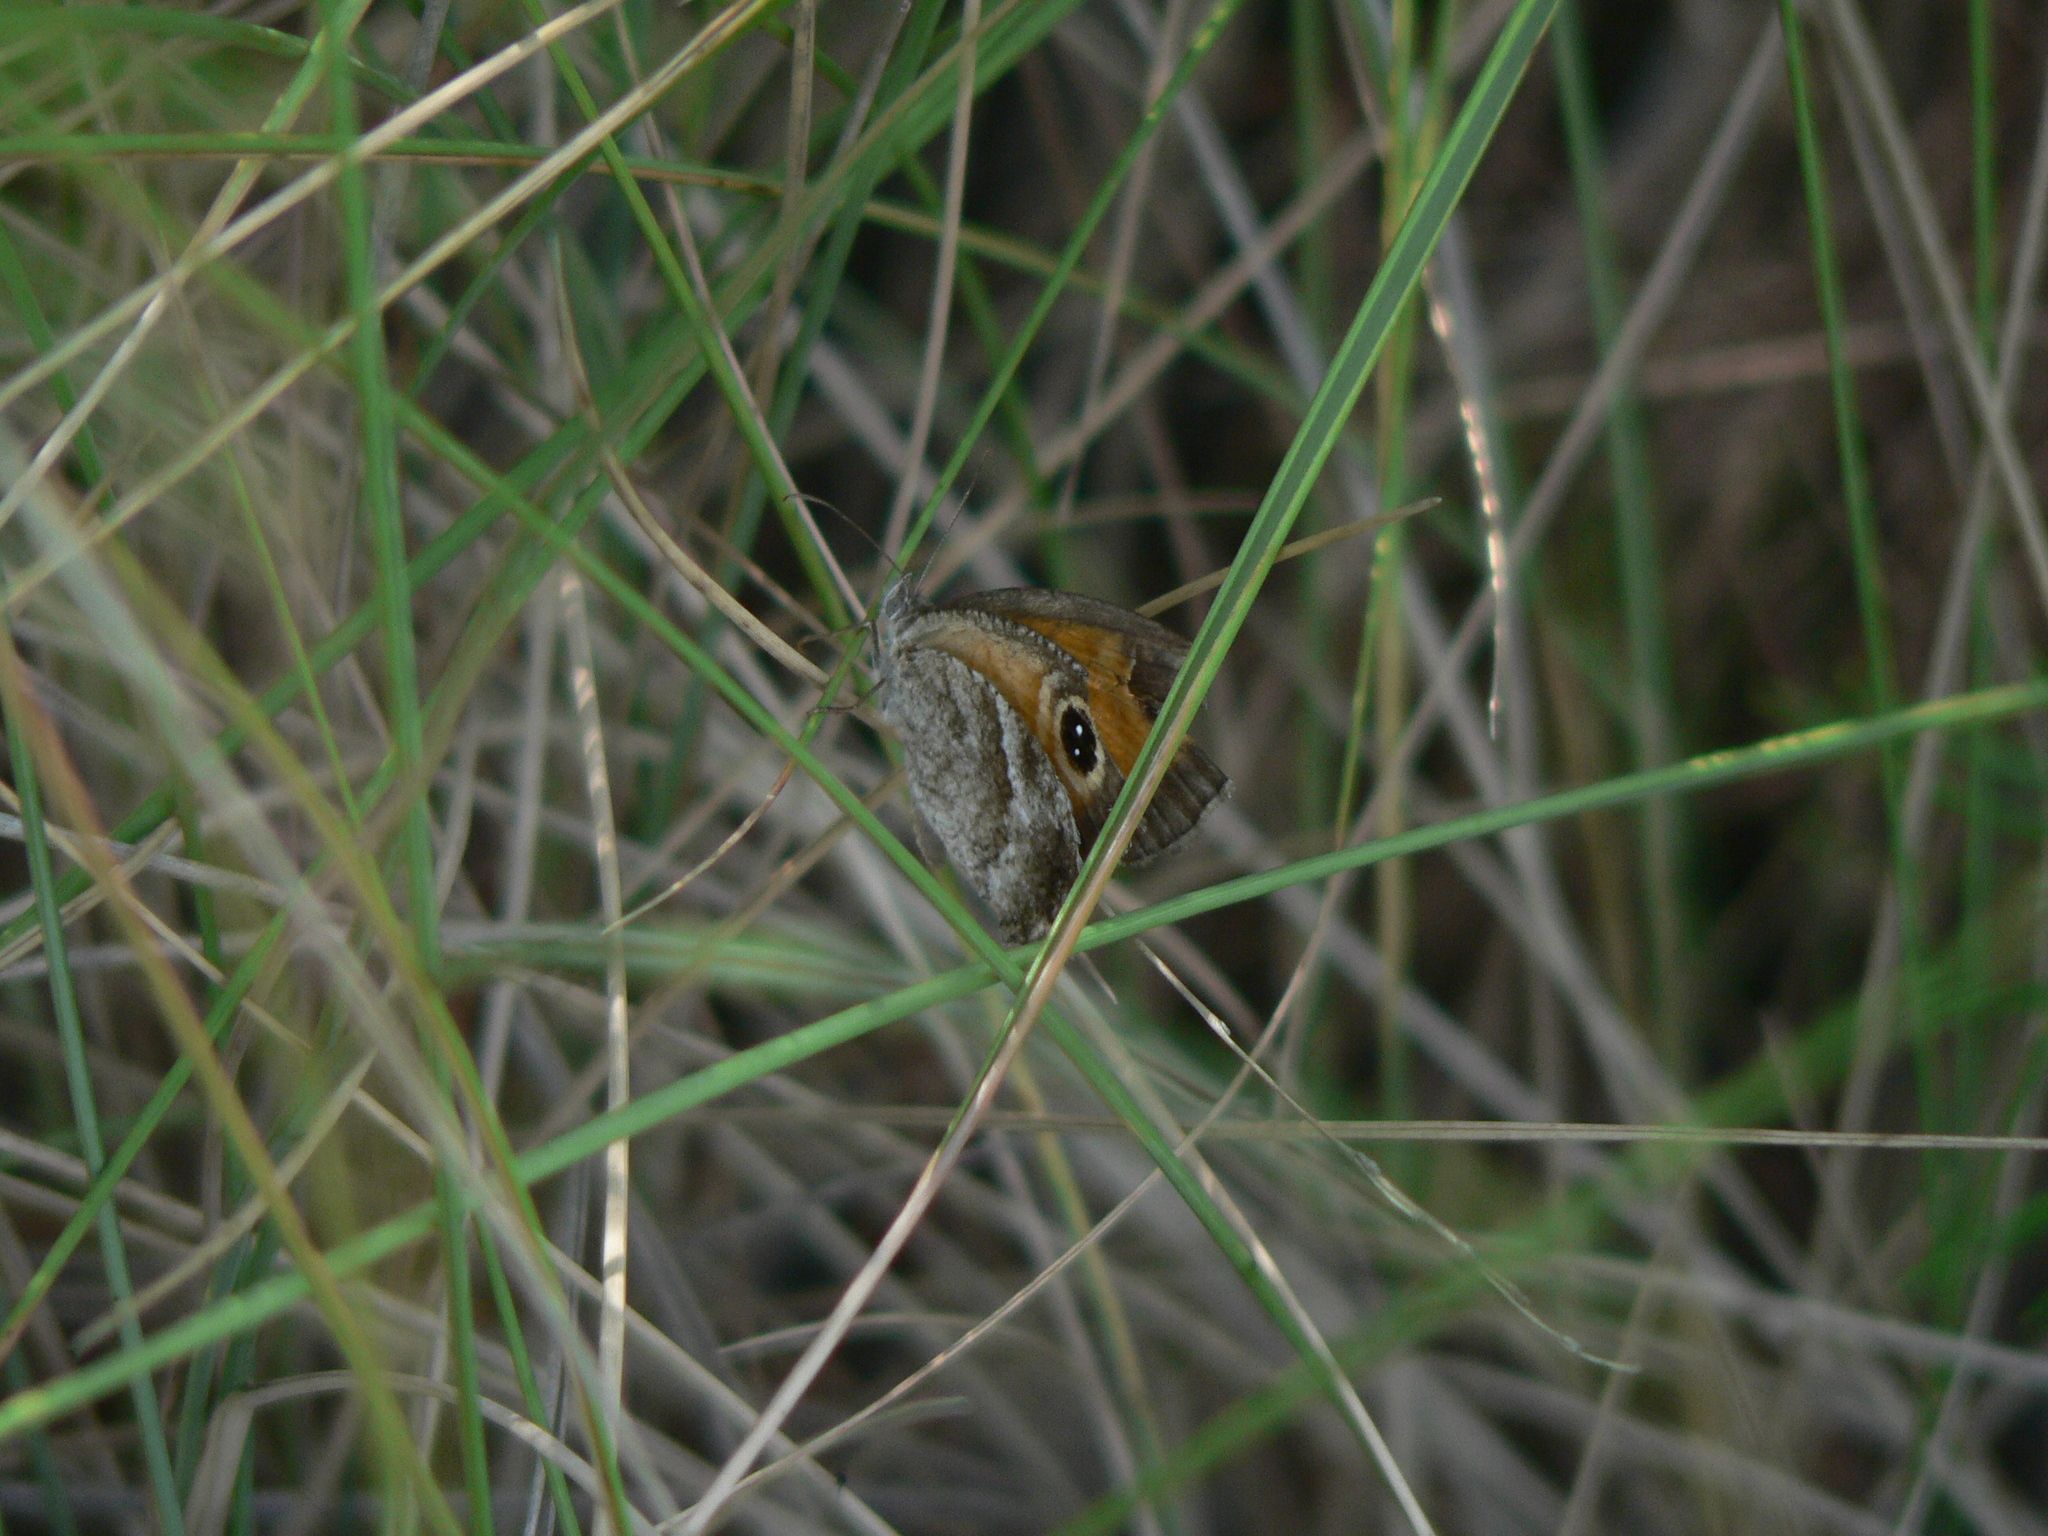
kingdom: Animalia
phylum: Arthropoda
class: Insecta
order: Lepidoptera
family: Nymphalidae
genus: Pyronia
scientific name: Pyronia cecilia
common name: Southern gatekeeper
